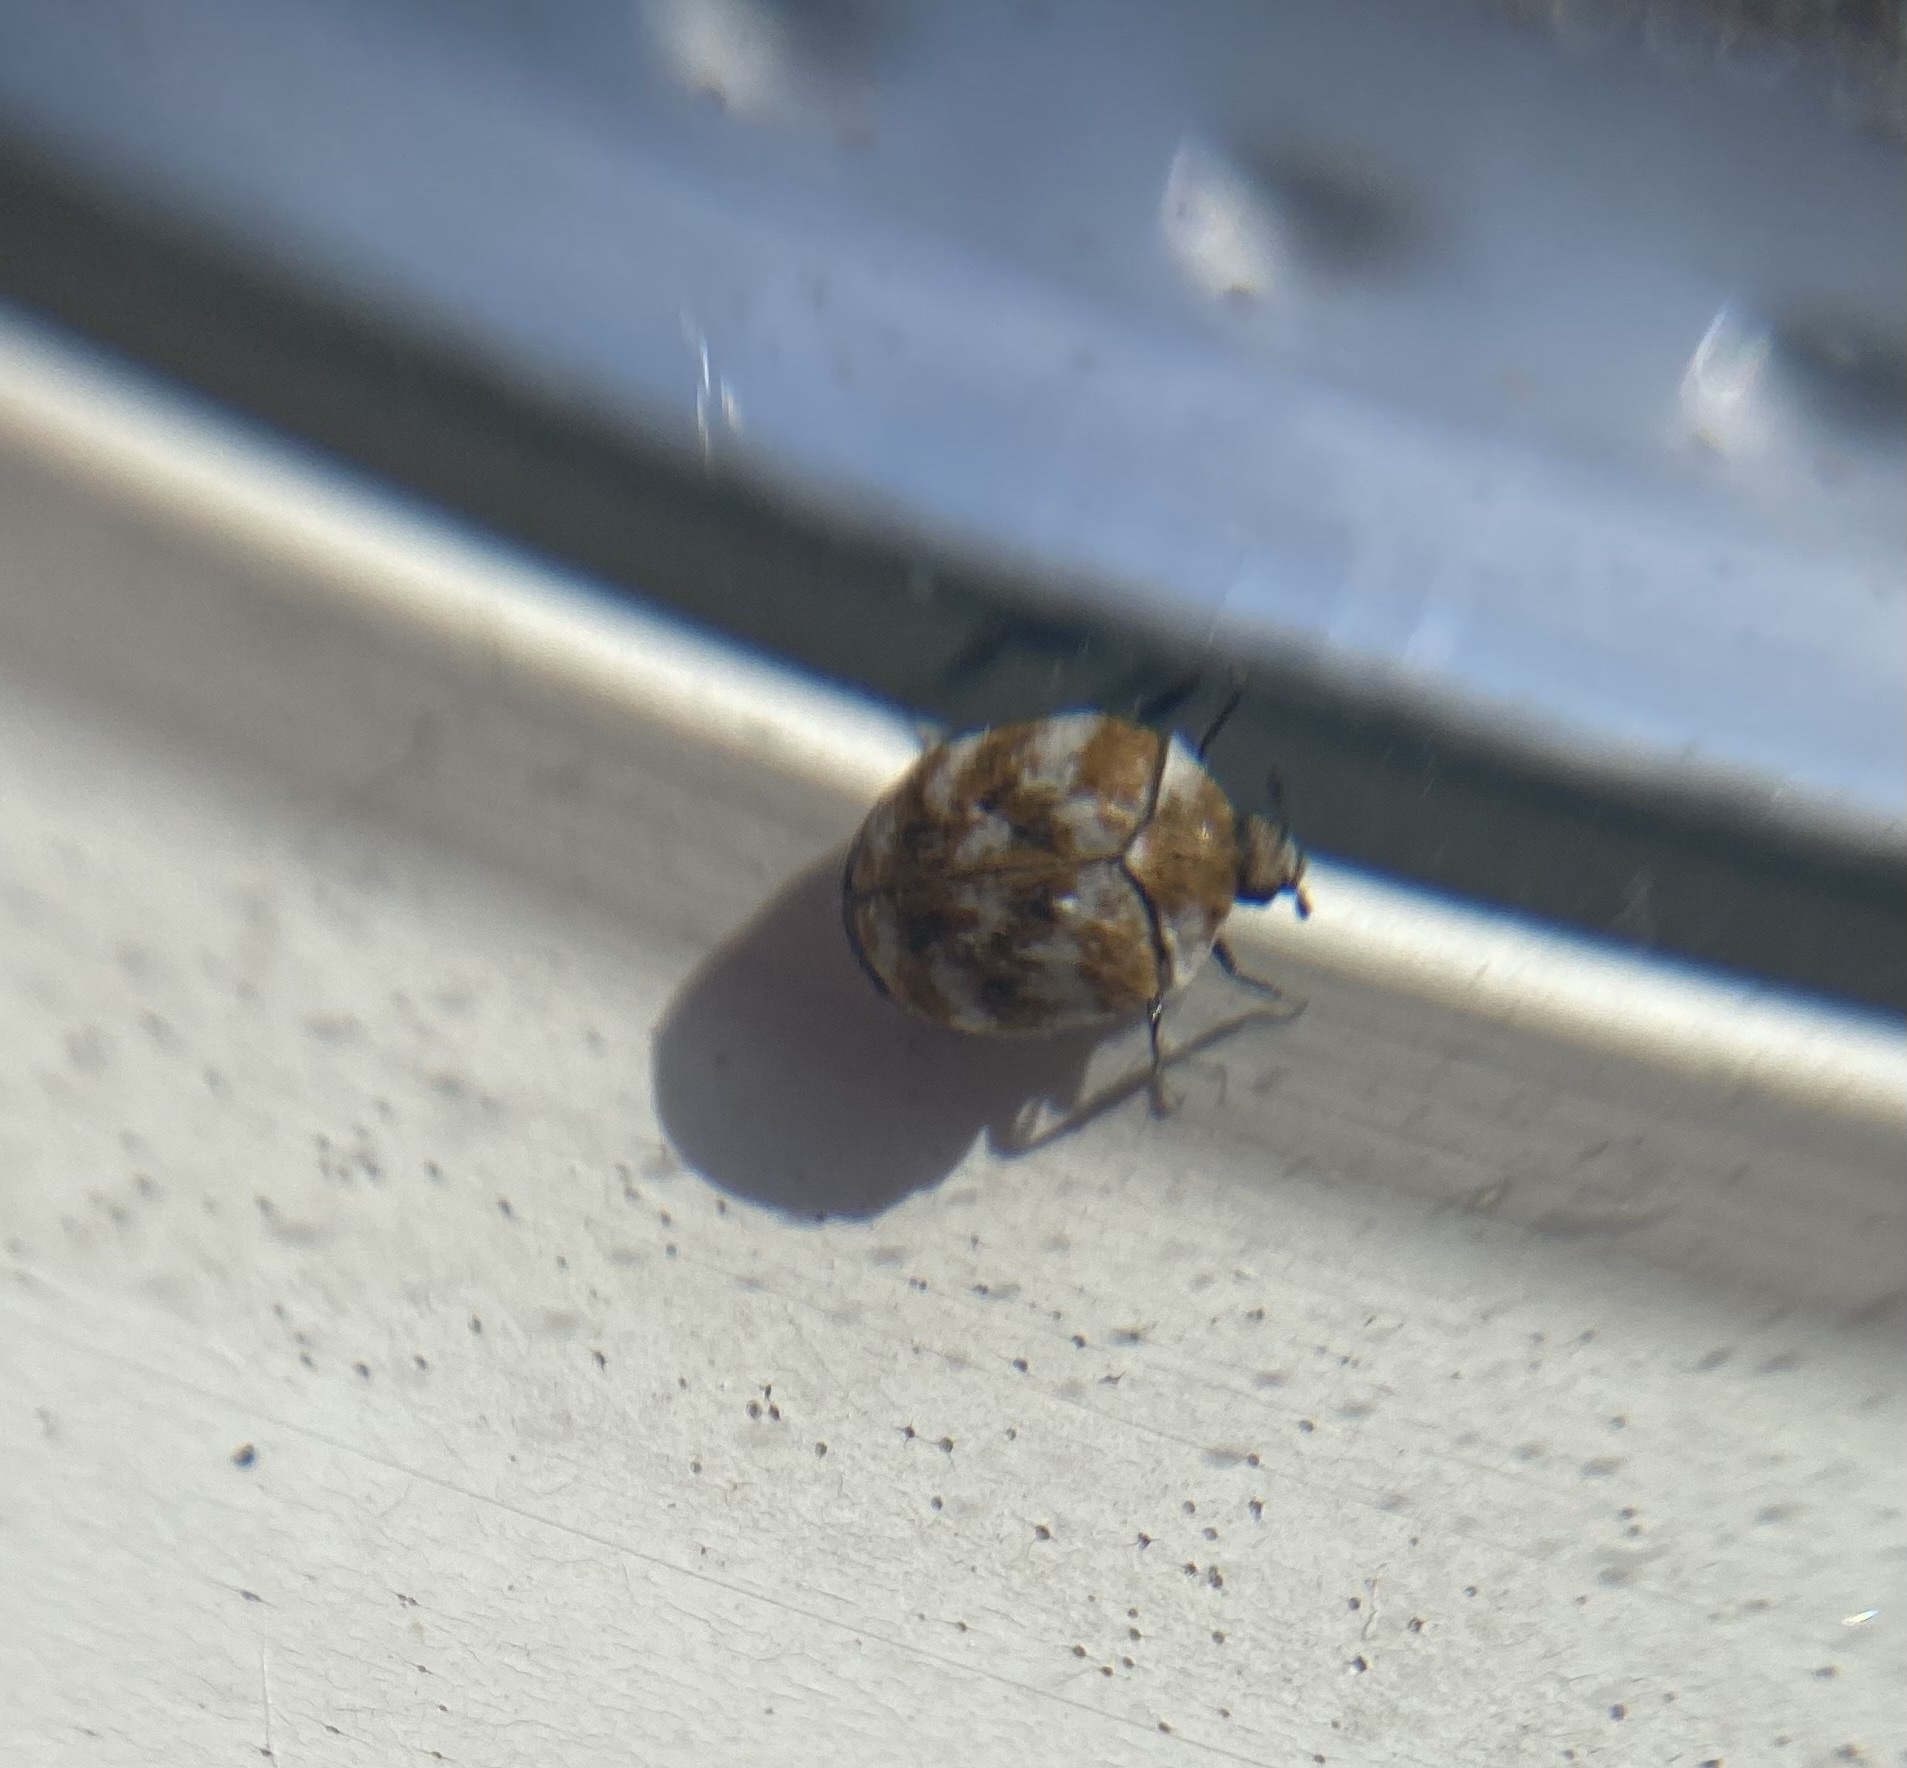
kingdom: Animalia
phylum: Arthropoda
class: Insecta
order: Coleoptera
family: Dermestidae
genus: Anthrenus
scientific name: Anthrenus verbasci
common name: Varied carpet beetle
